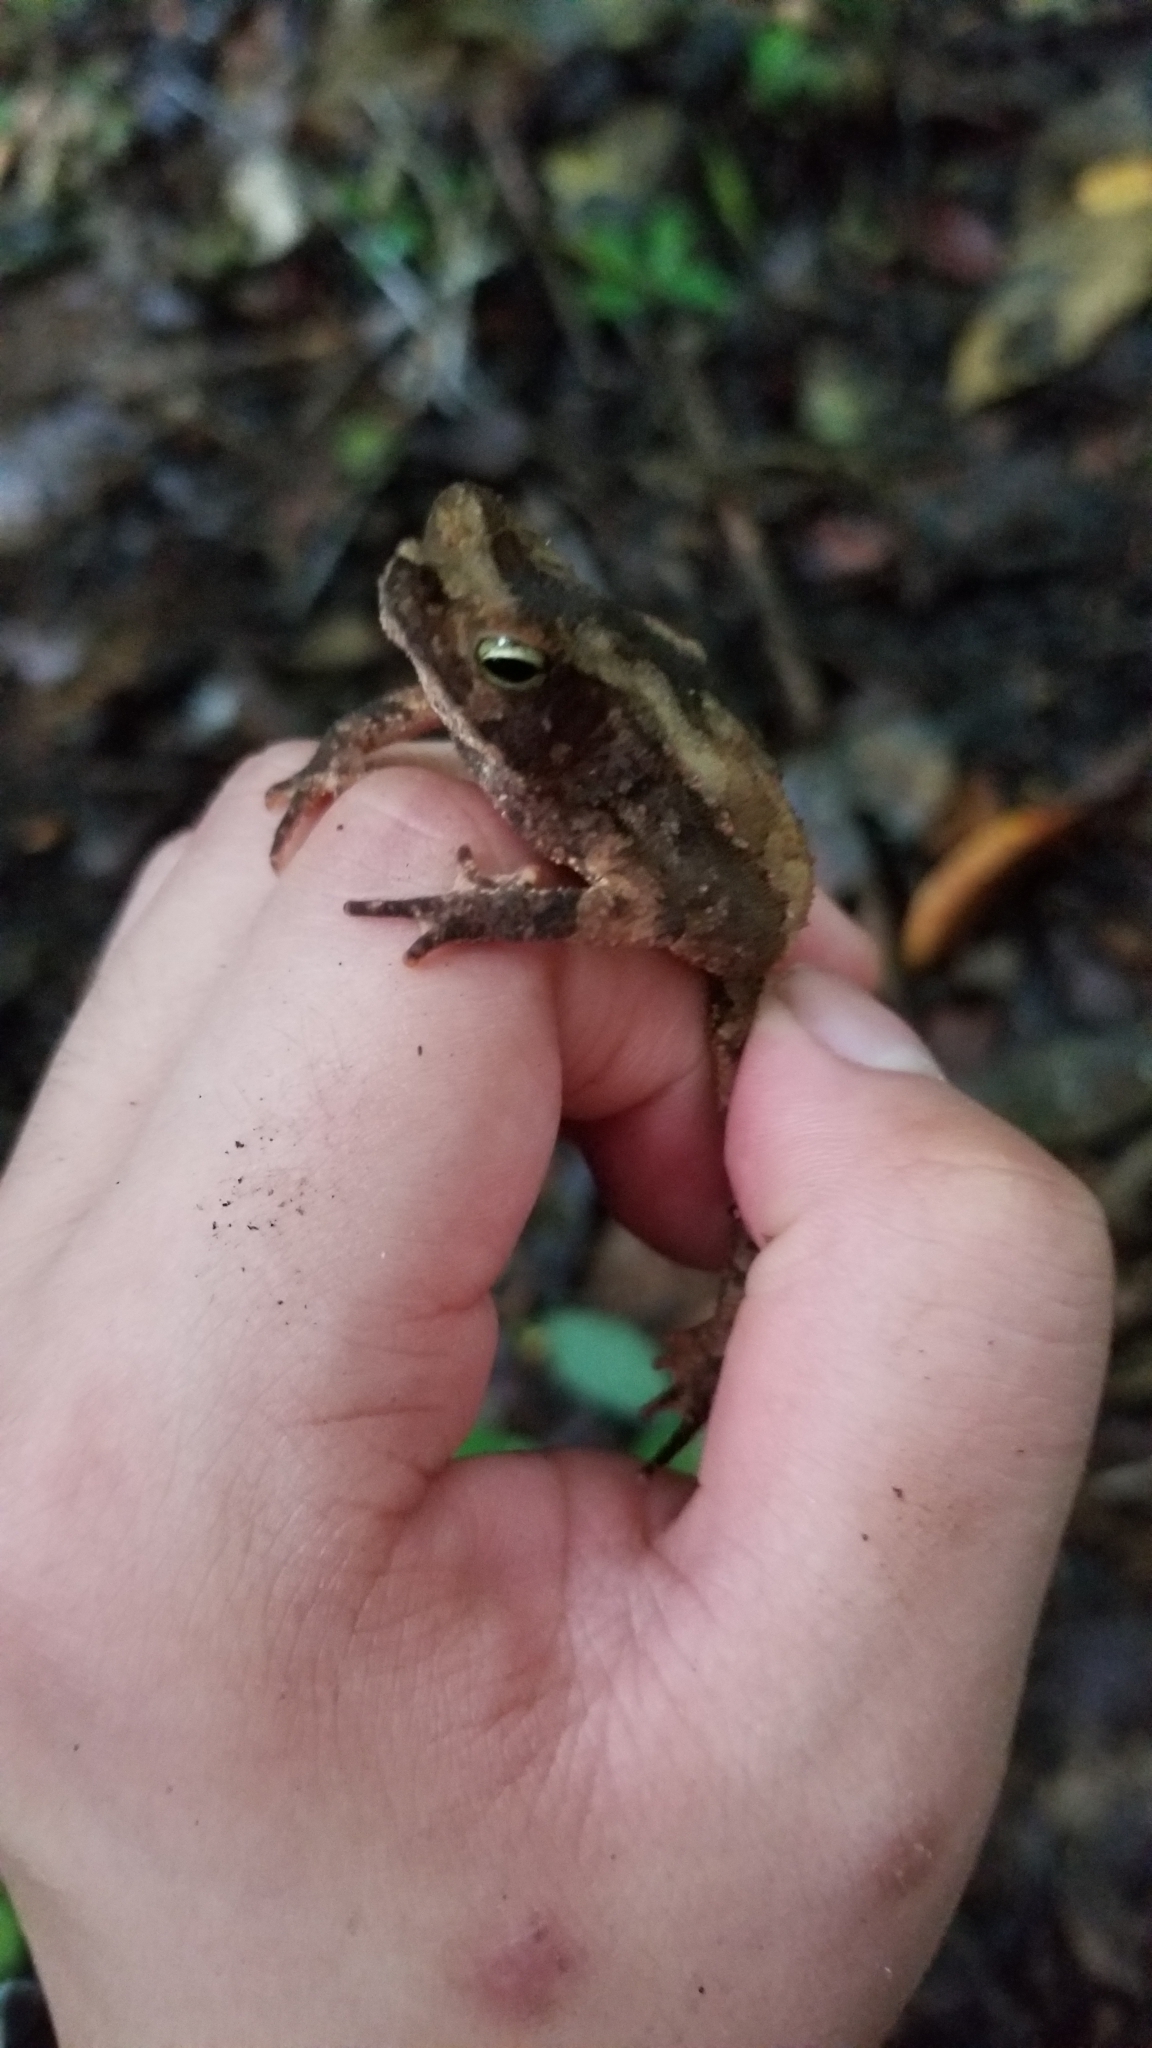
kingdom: Animalia
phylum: Chordata
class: Amphibia
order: Anura
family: Bufonidae
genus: Rhinella
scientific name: Rhinella alata
